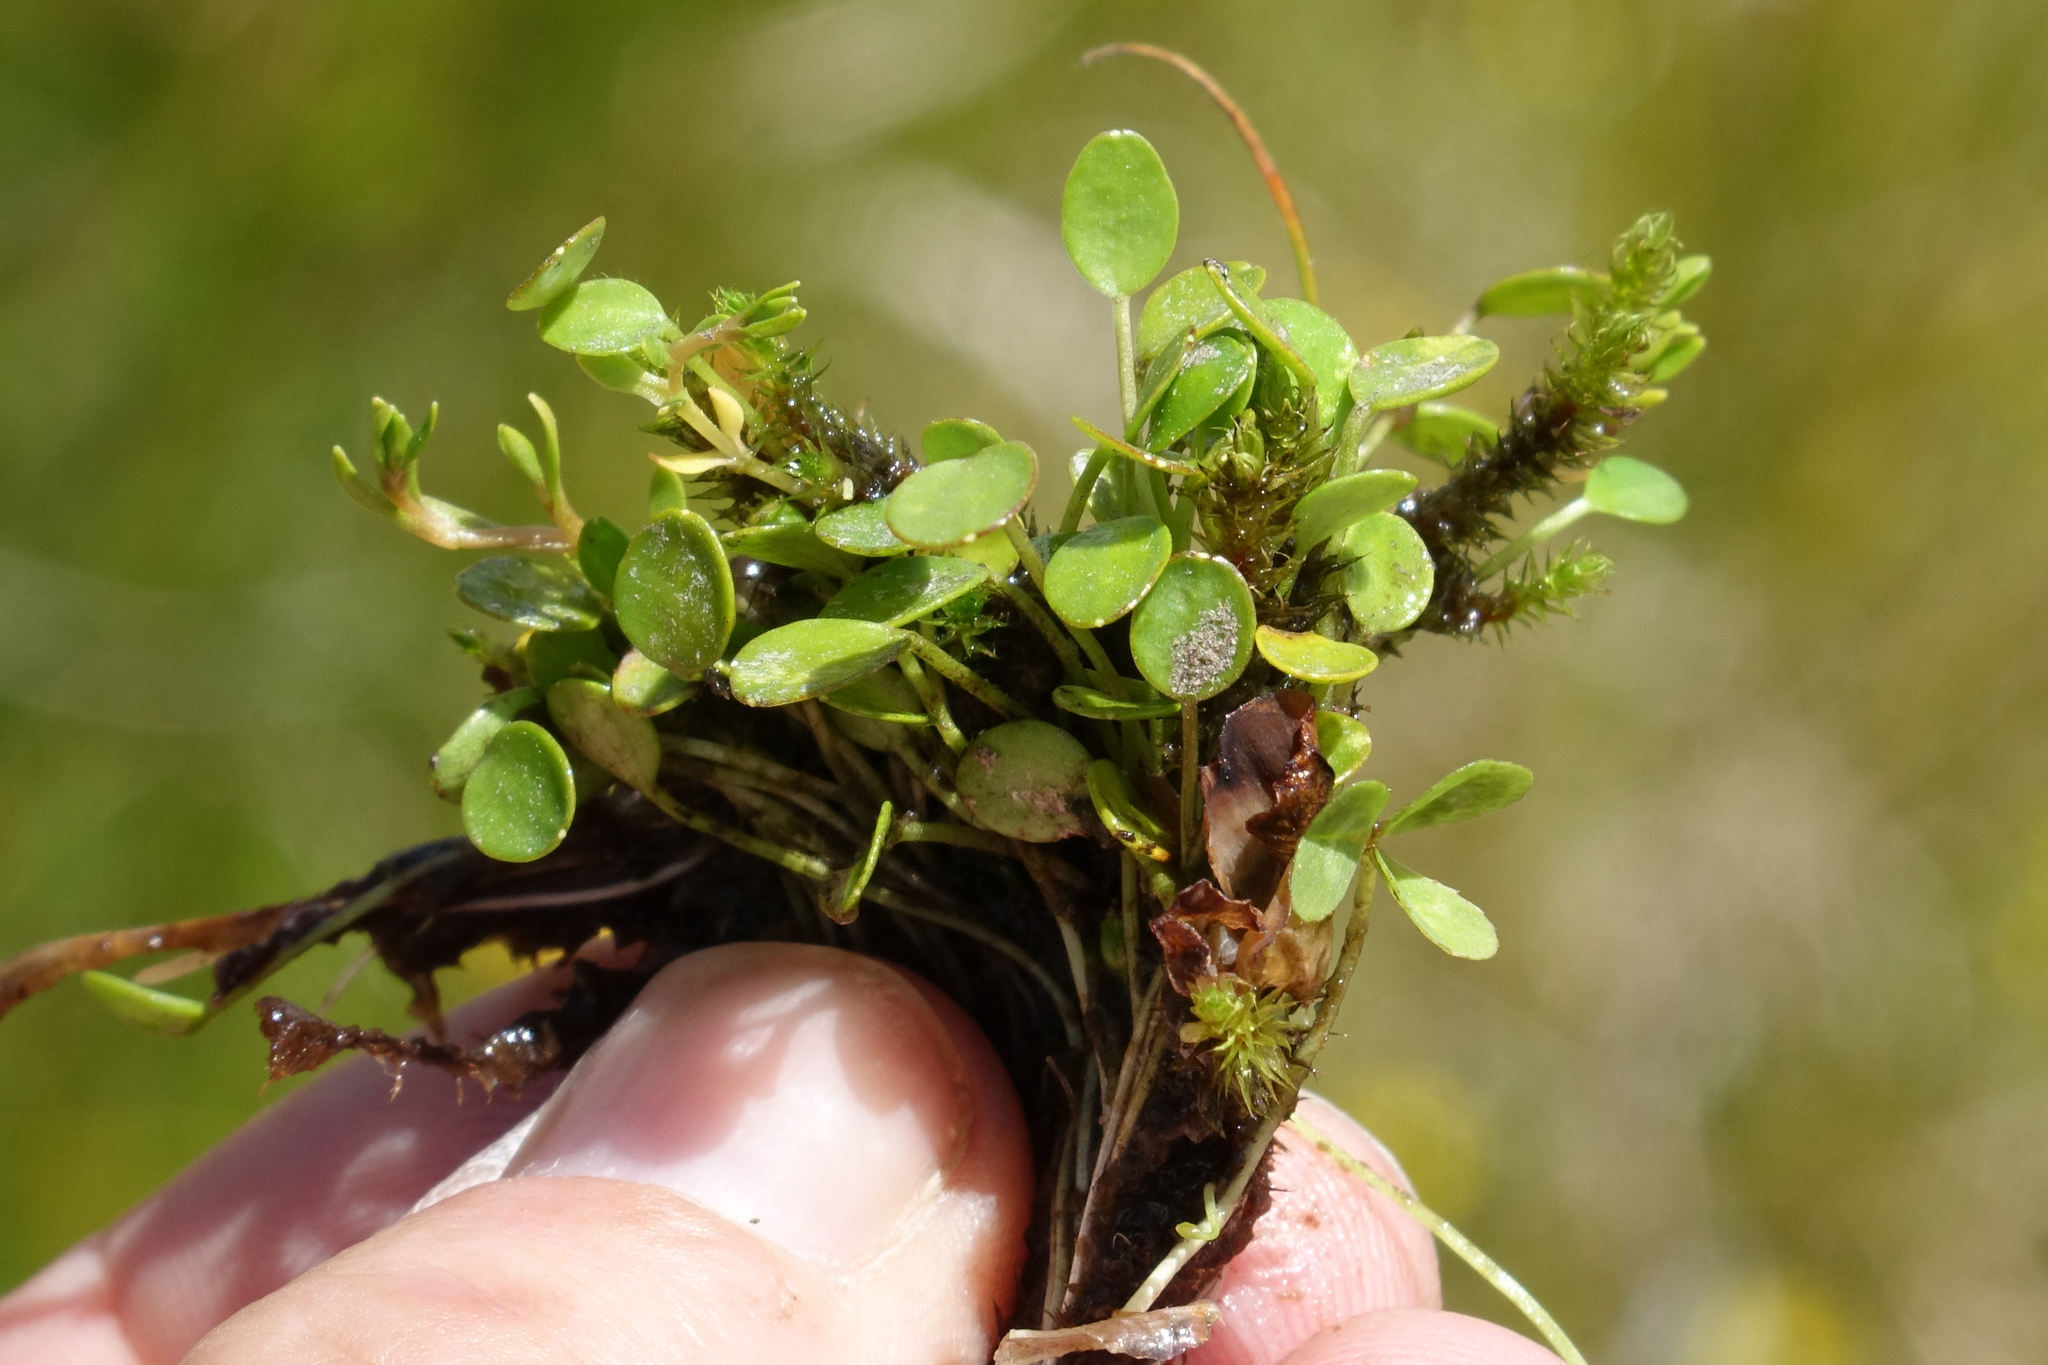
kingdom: Plantae
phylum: Tracheophyta
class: Magnoliopsida
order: Apiales
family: Apiaceae
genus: Azorella
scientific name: Azorella cockaynei
